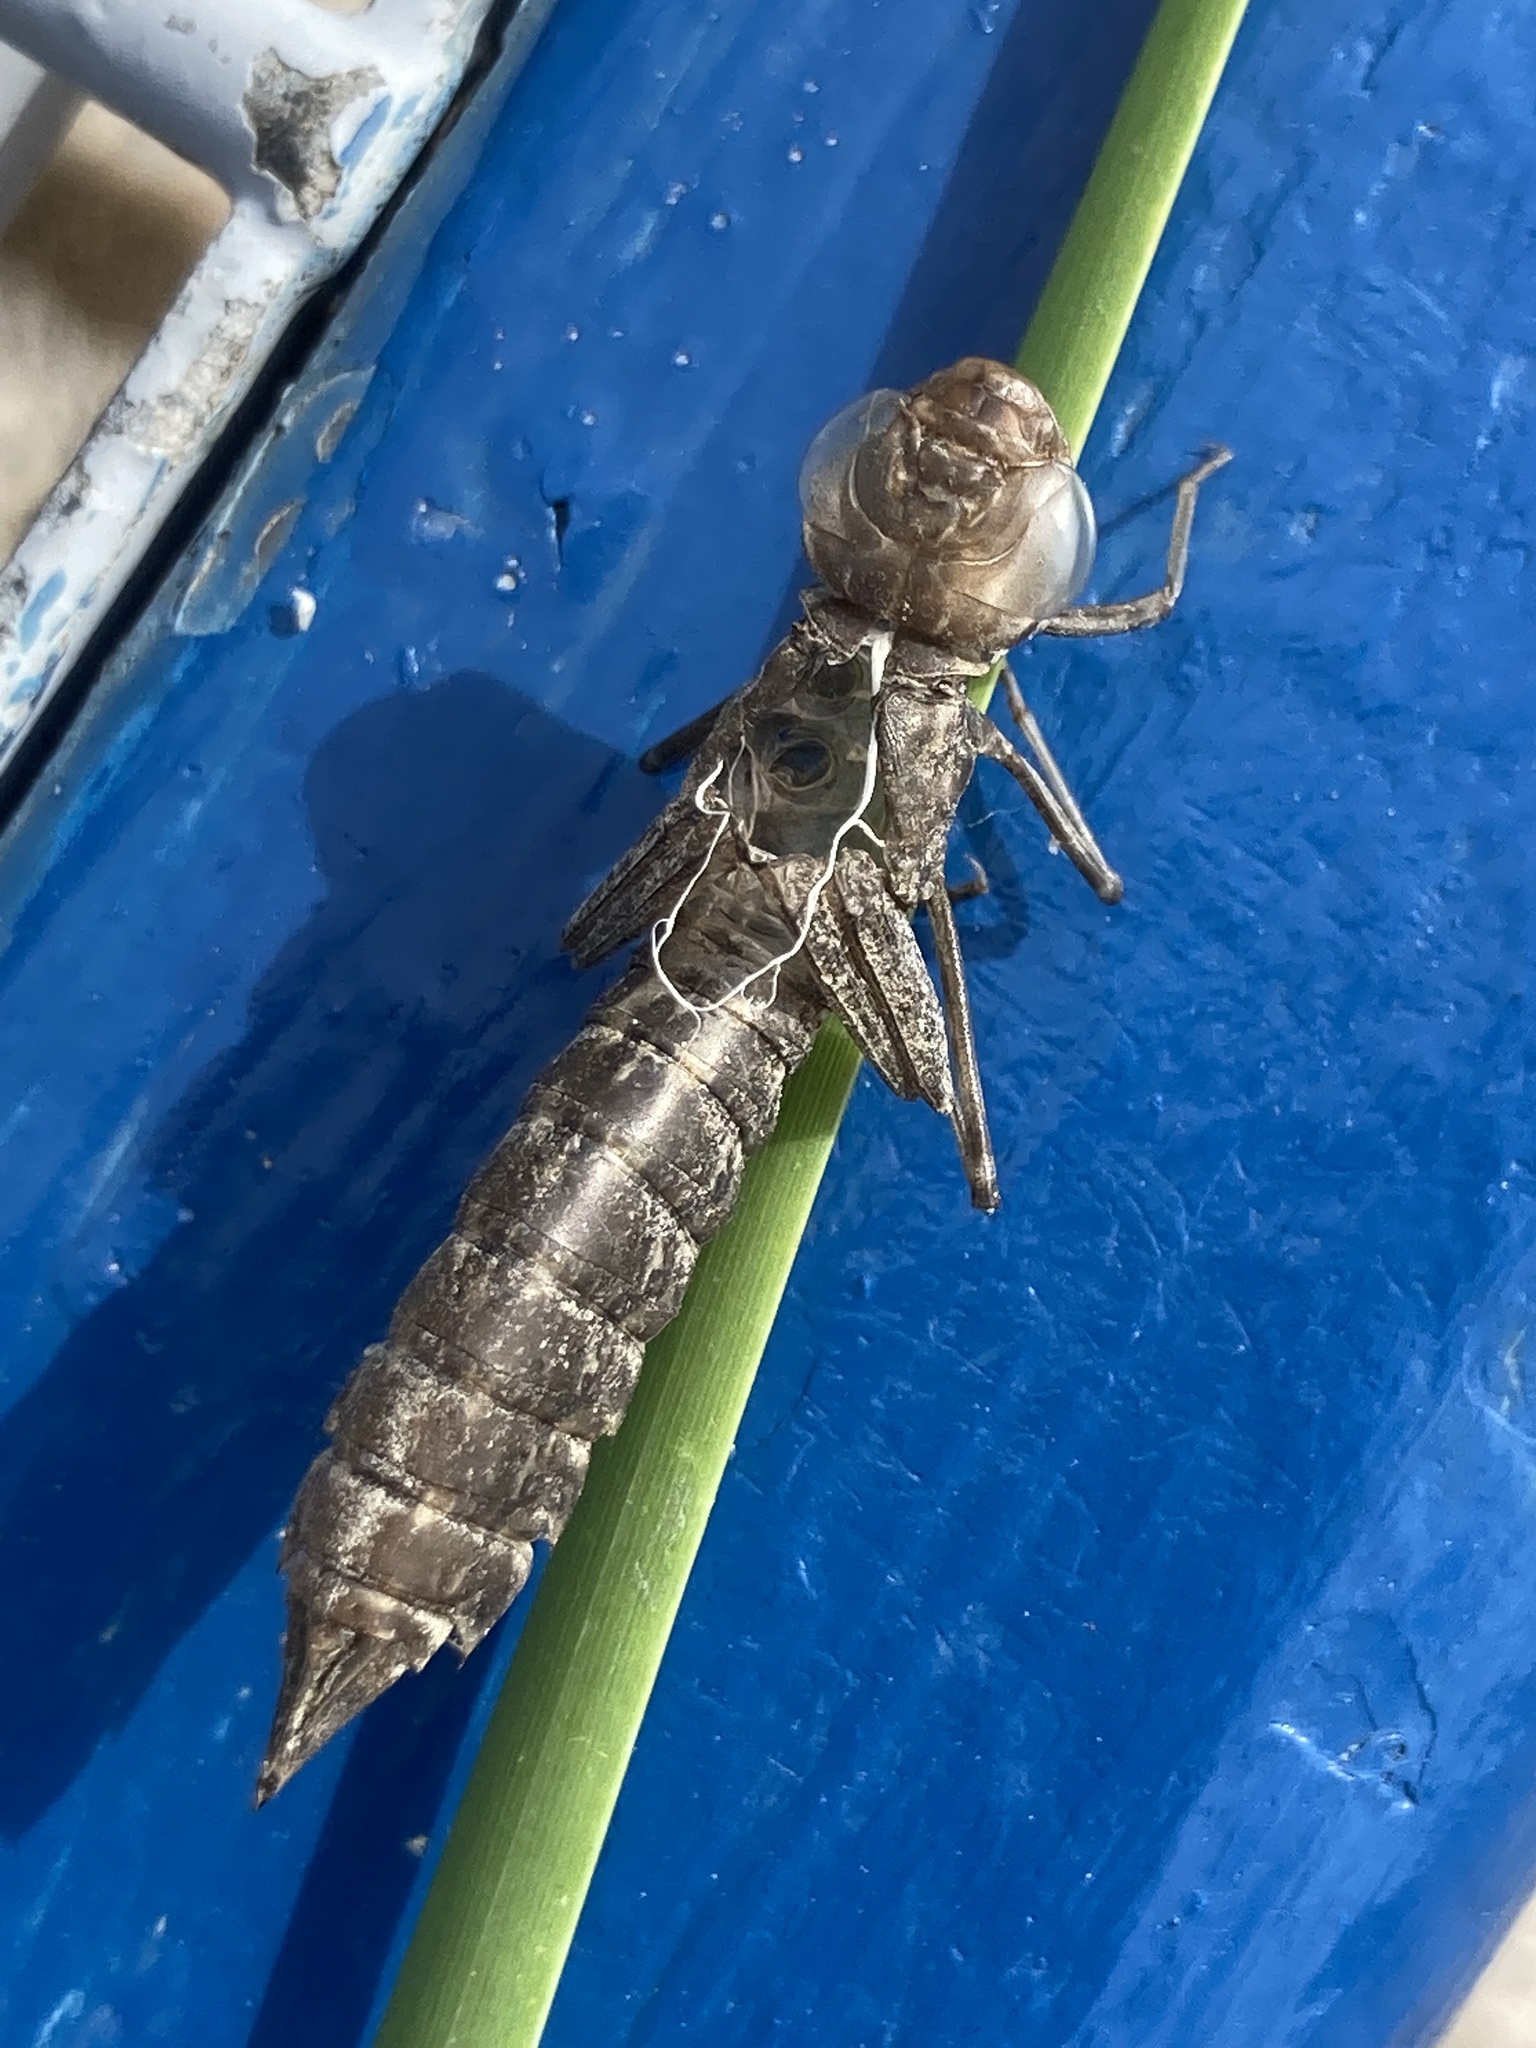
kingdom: Animalia
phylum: Arthropoda
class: Insecta
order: Odonata
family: Aeshnidae
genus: Anax
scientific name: Anax ephippiger
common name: Vagrant emperor
